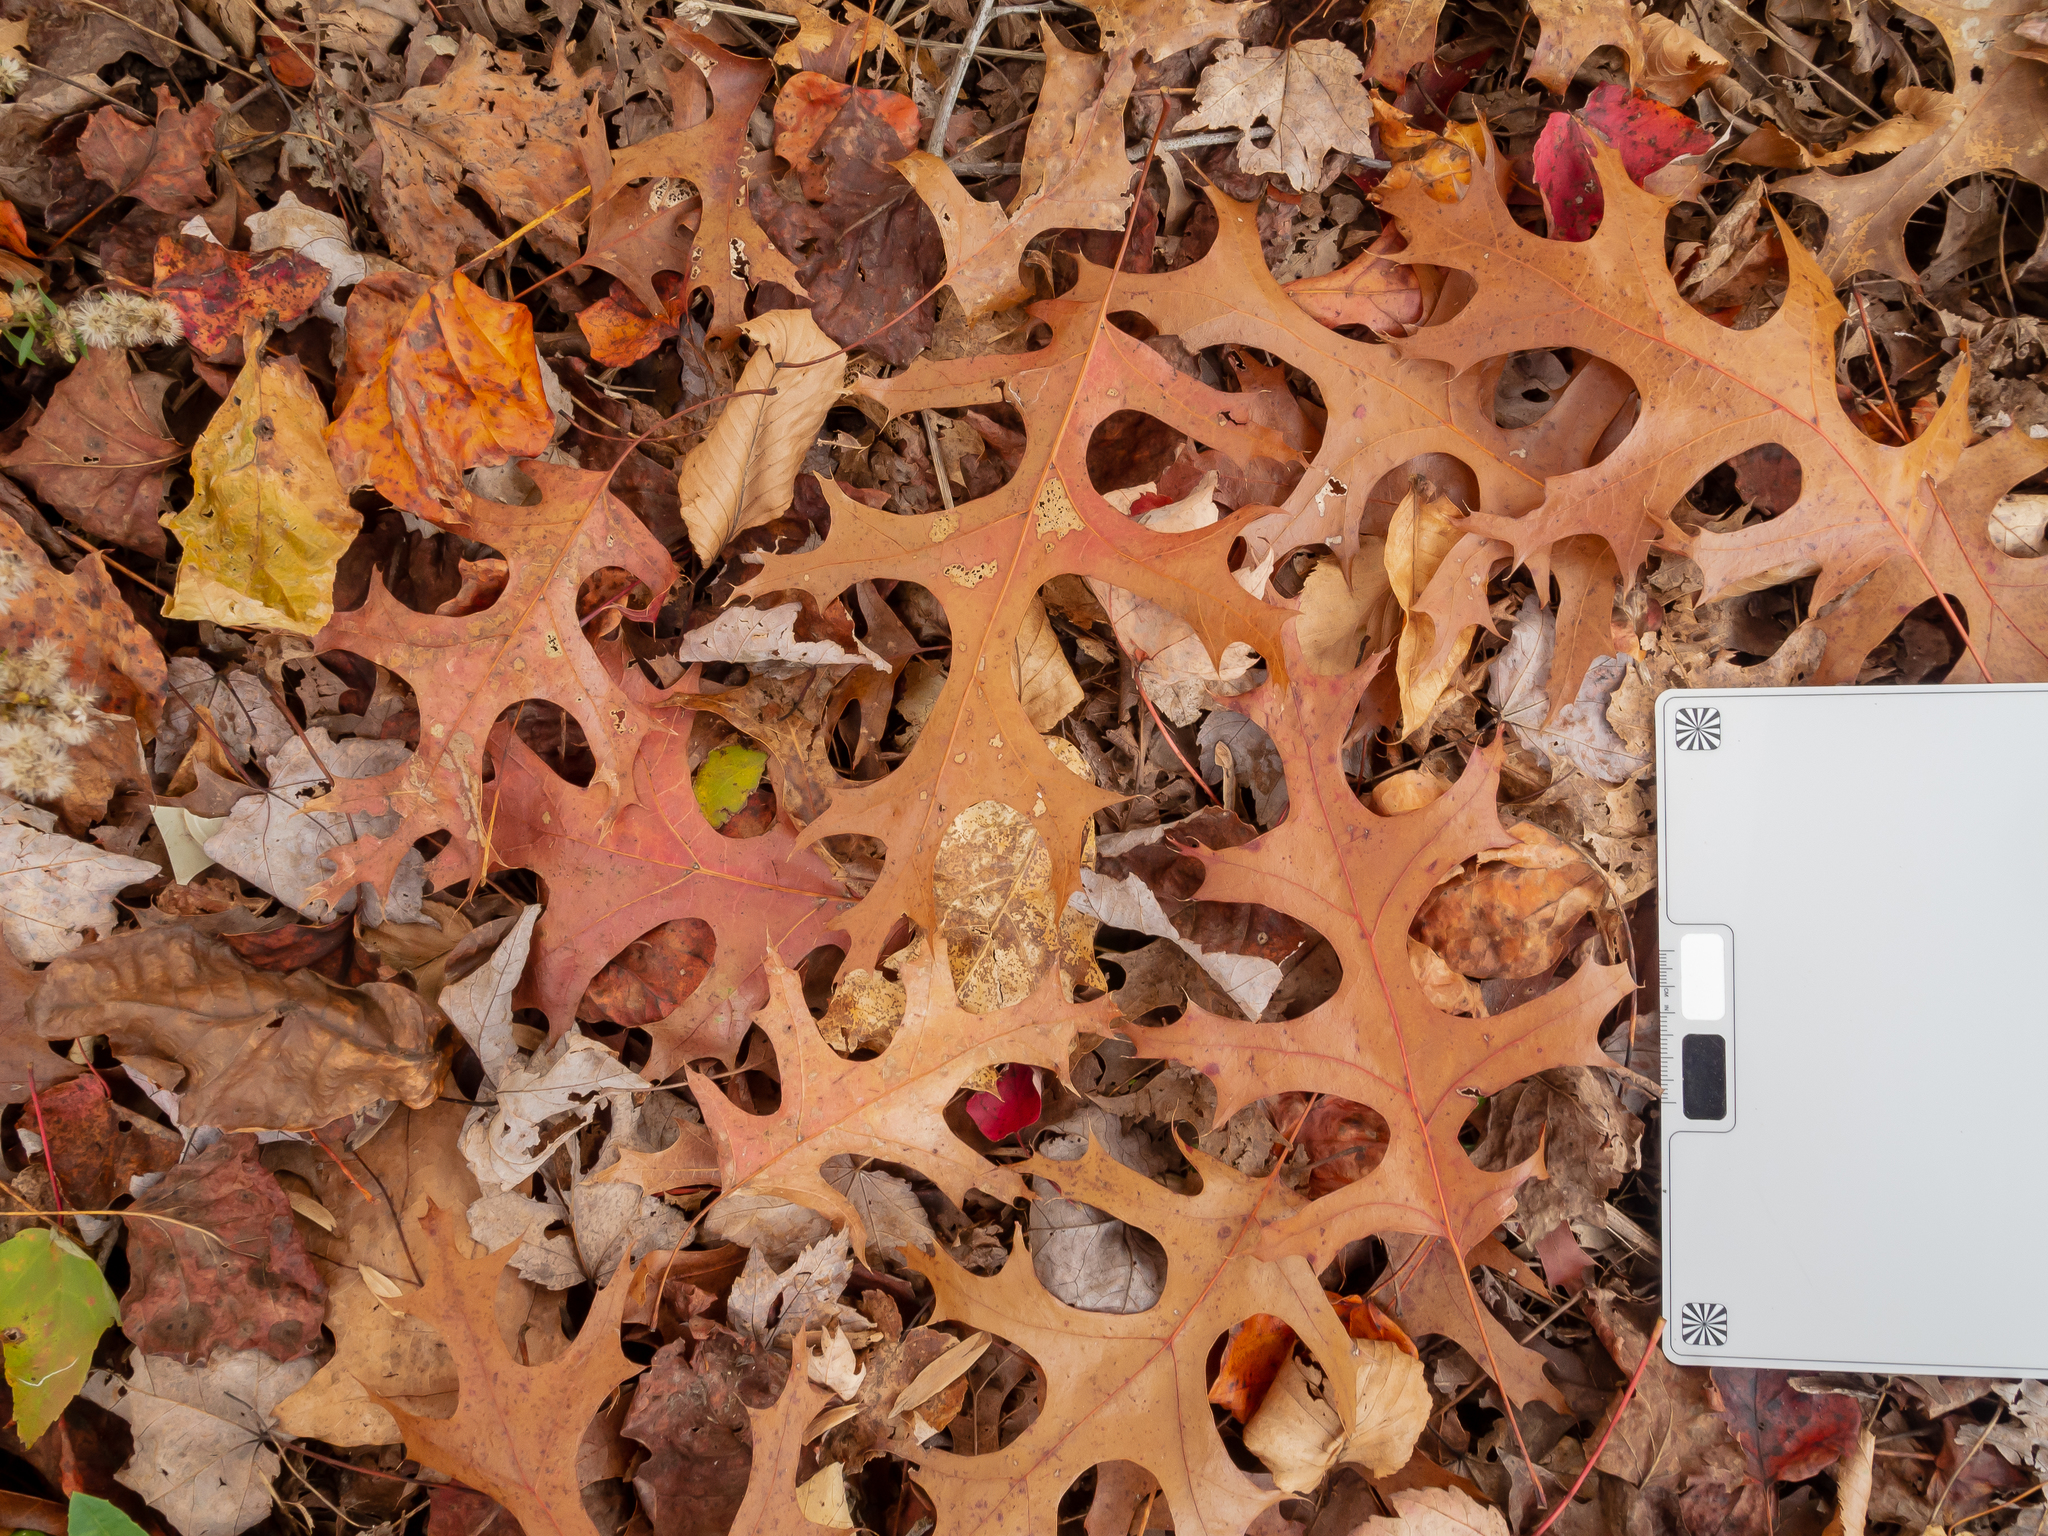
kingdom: Plantae
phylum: Tracheophyta
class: Magnoliopsida
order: Fagales
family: Fagaceae
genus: Quercus
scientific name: Quercus coccinea
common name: Scarlet oak
